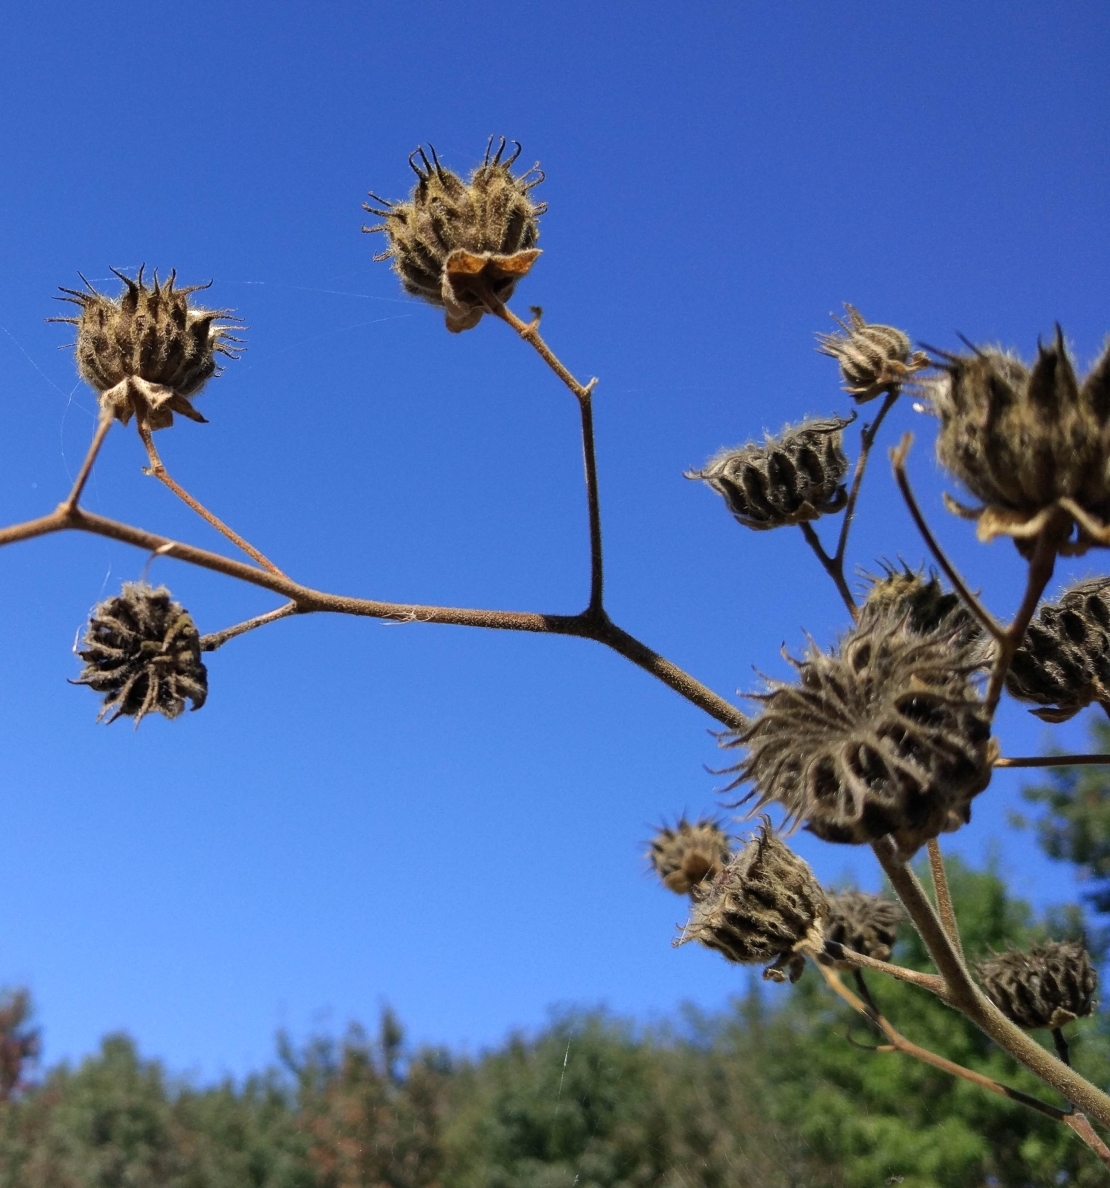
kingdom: Plantae
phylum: Tracheophyta
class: Magnoliopsida
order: Malvales
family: Malvaceae
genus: Abutilon
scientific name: Abutilon theophrasti
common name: Velvetleaf
